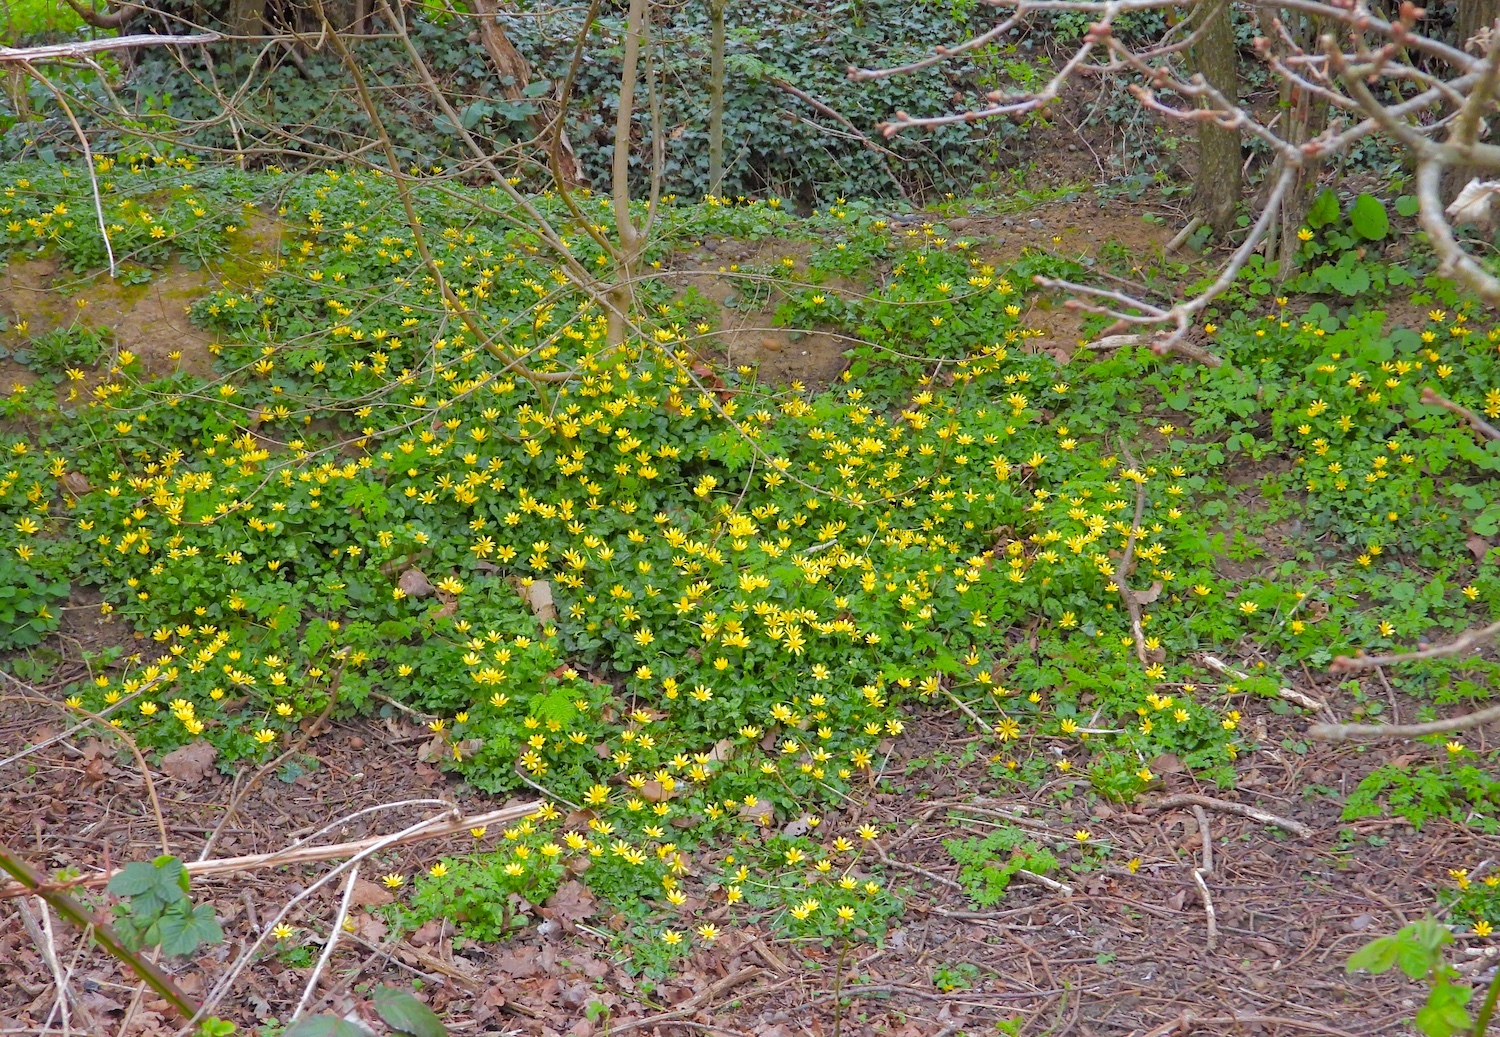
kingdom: Plantae
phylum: Tracheophyta
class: Magnoliopsida
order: Ranunculales
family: Ranunculaceae
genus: Ficaria
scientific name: Ficaria verna
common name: Lesser celandine
